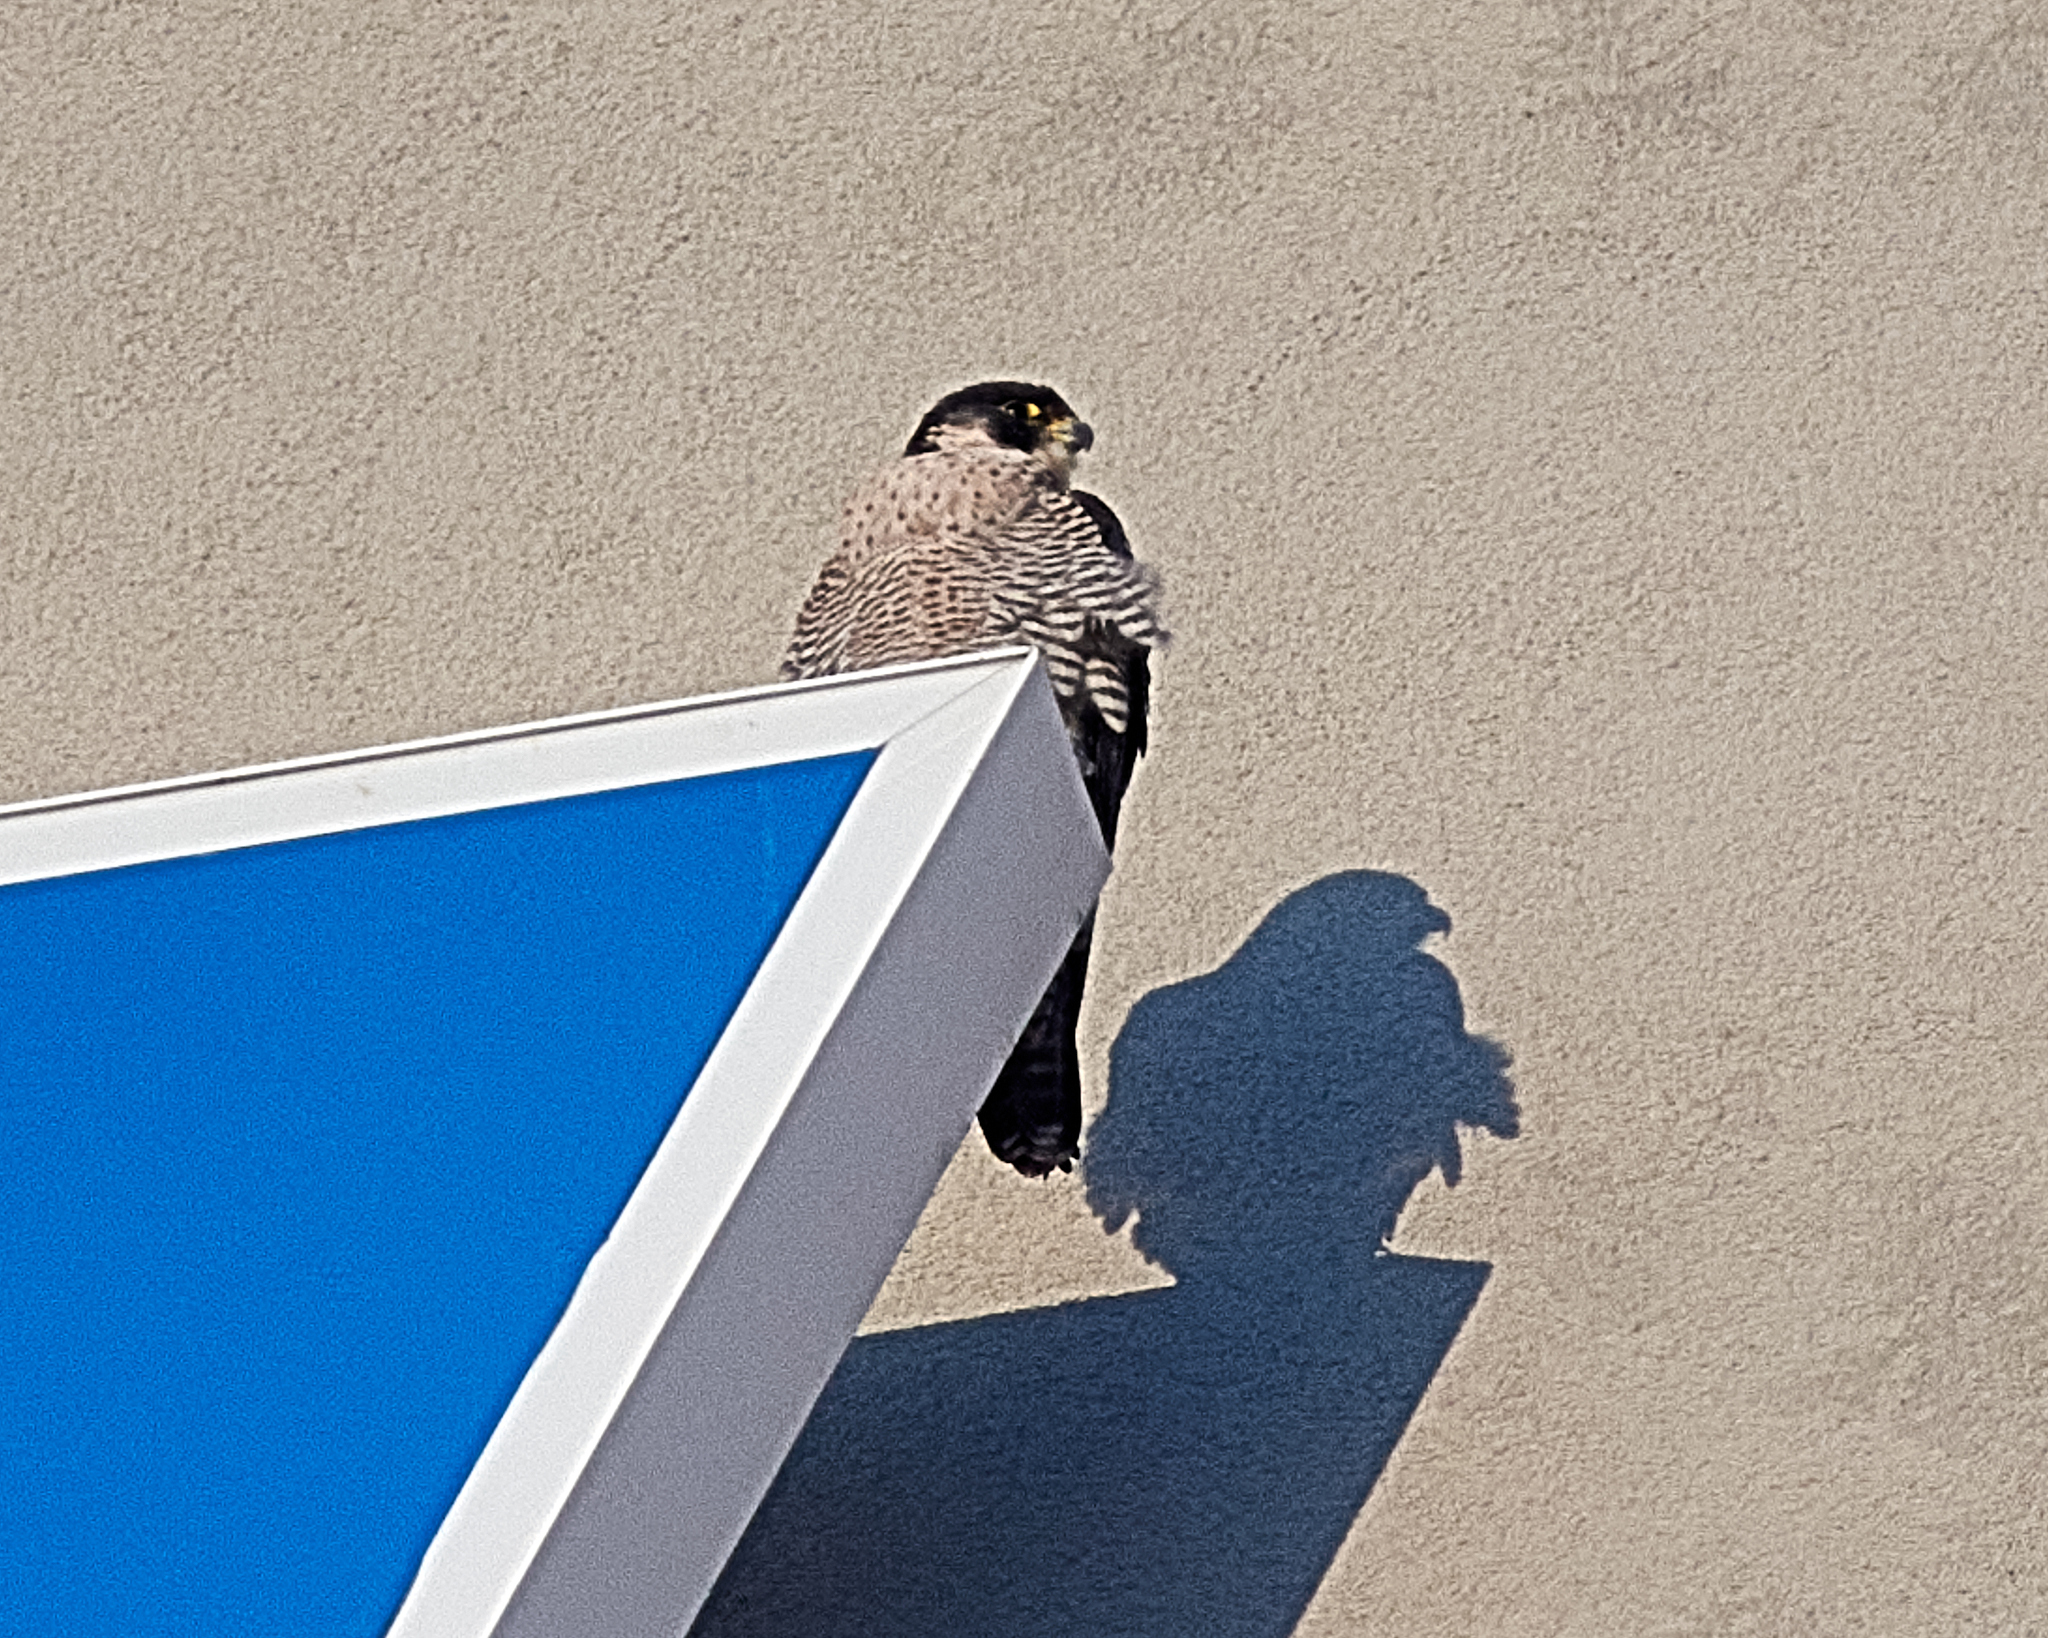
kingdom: Animalia
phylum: Chordata
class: Aves
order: Falconiformes
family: Falconidae
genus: Falco
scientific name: Falco peregrinus
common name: Peregrine falcon
